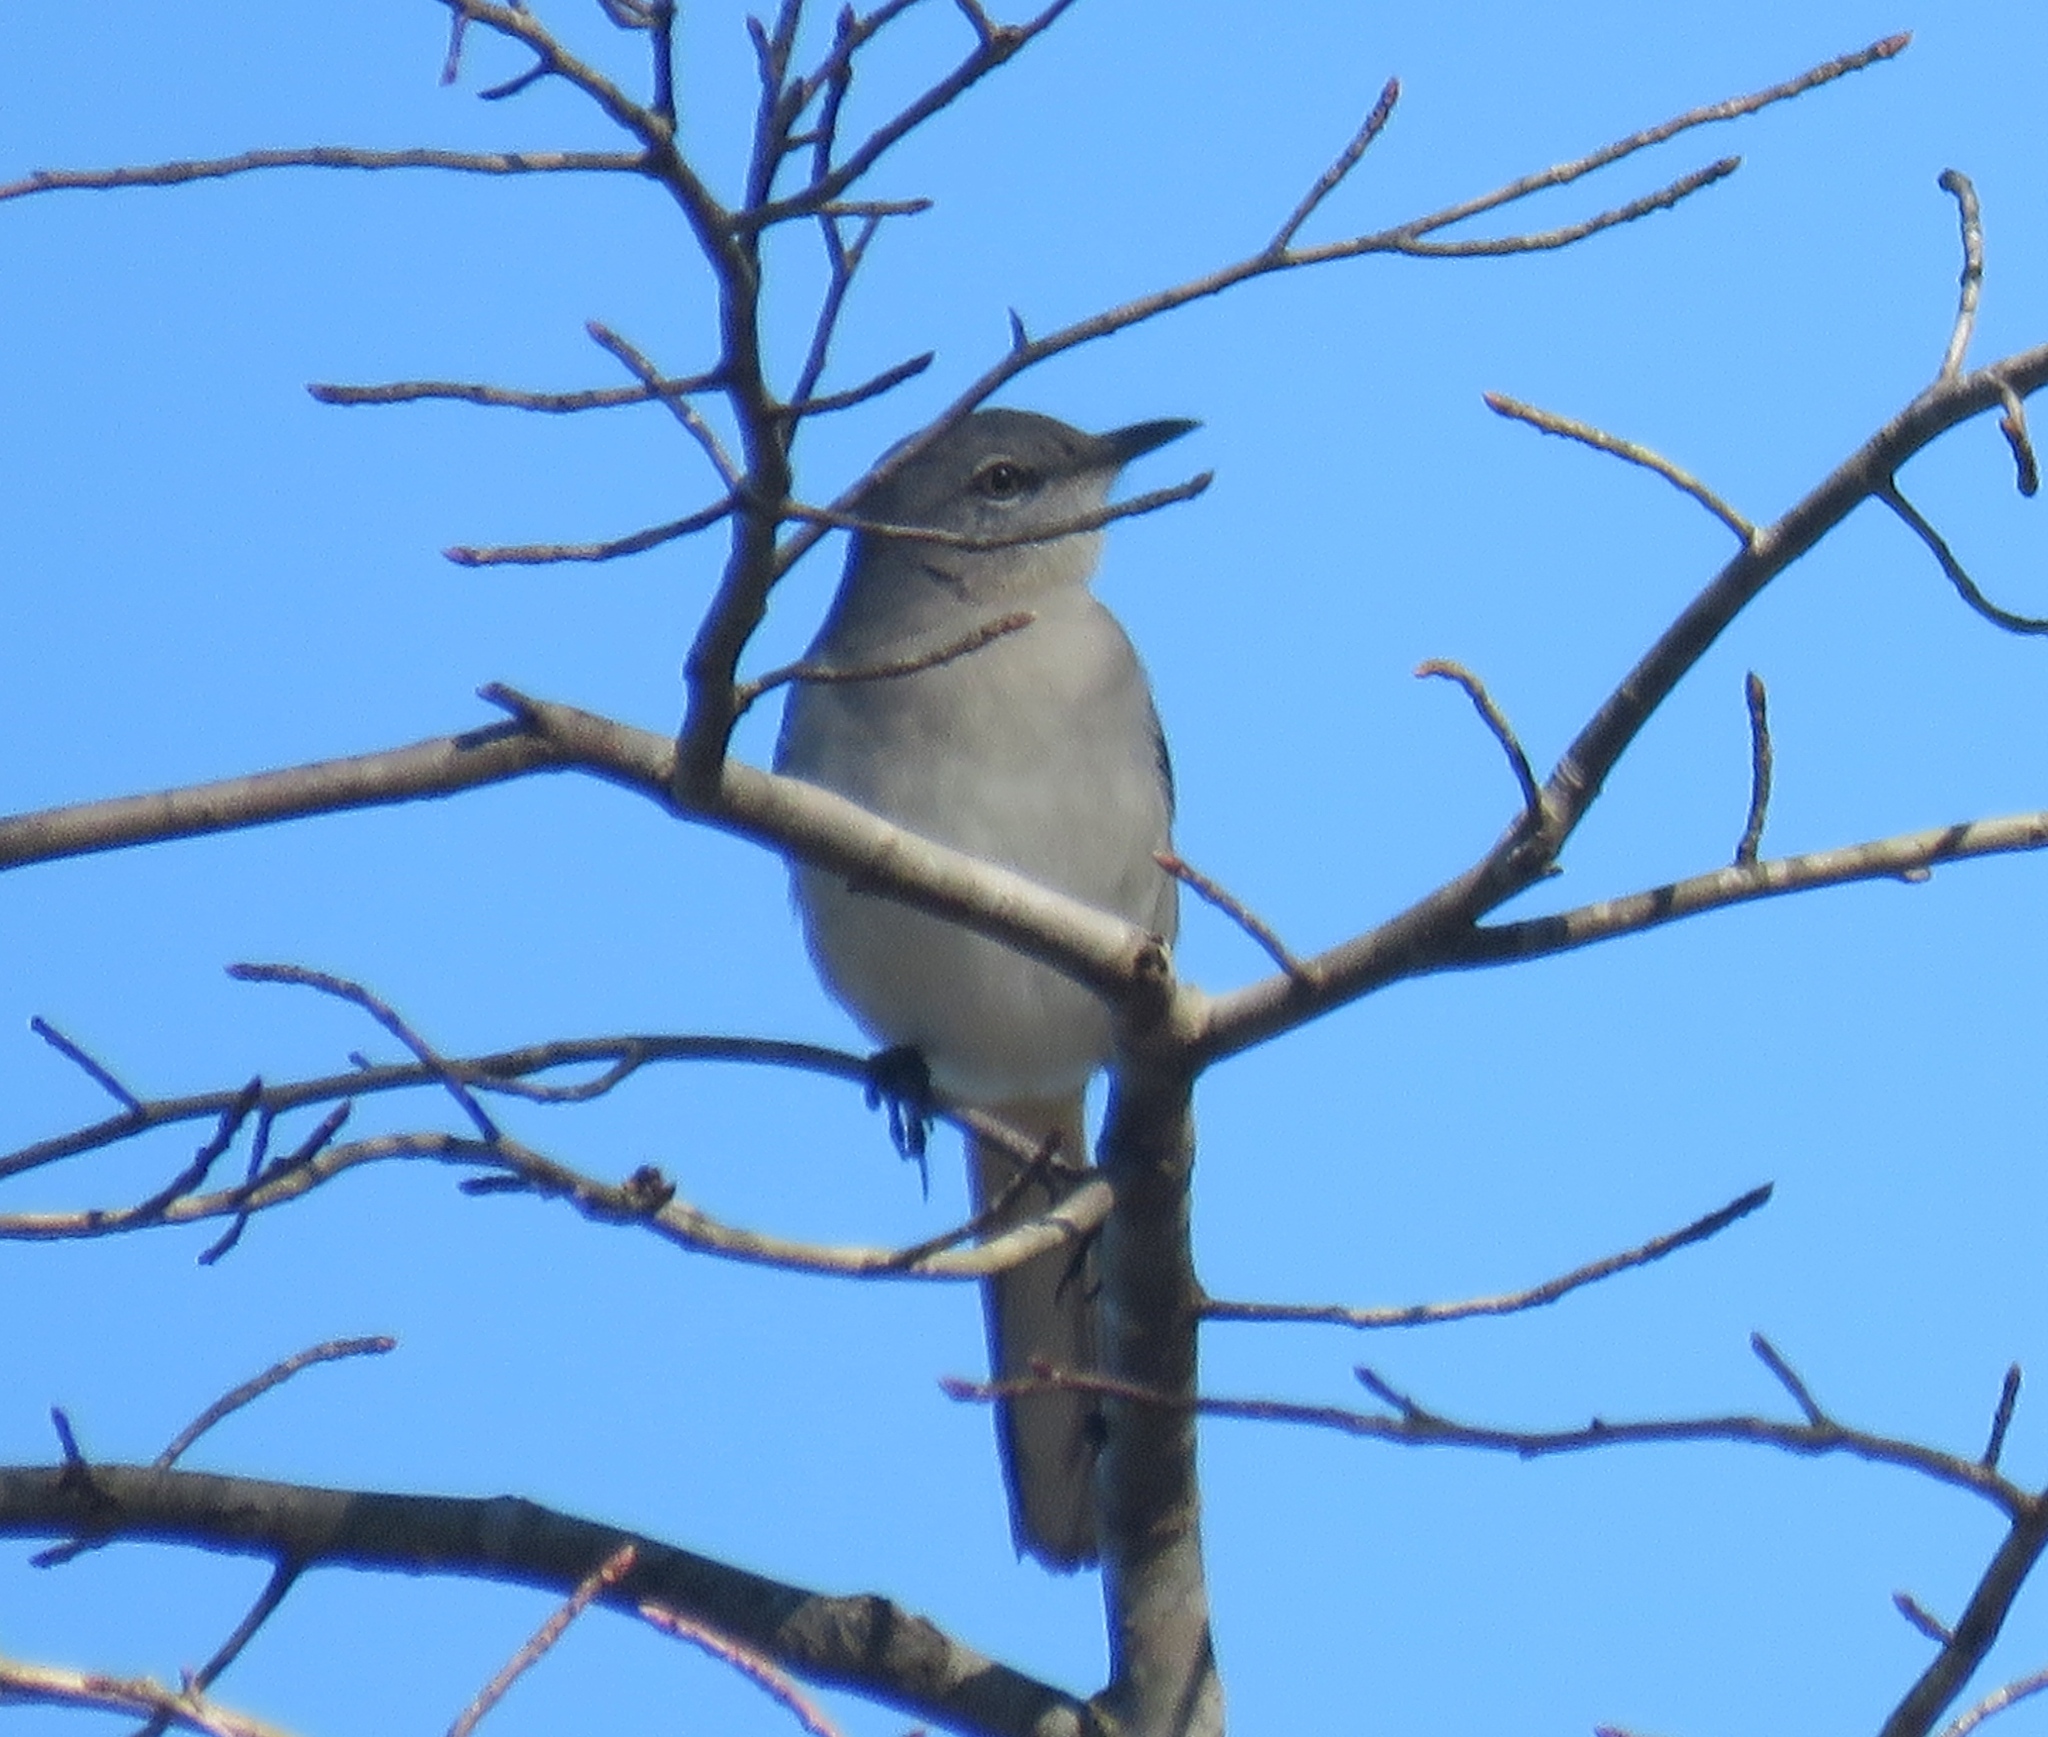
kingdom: Animalia
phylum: Chordata
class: Aves
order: Passeriformes
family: Mimidae
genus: Mimus
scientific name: Mimus polyglottos
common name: Northern mockingbird
